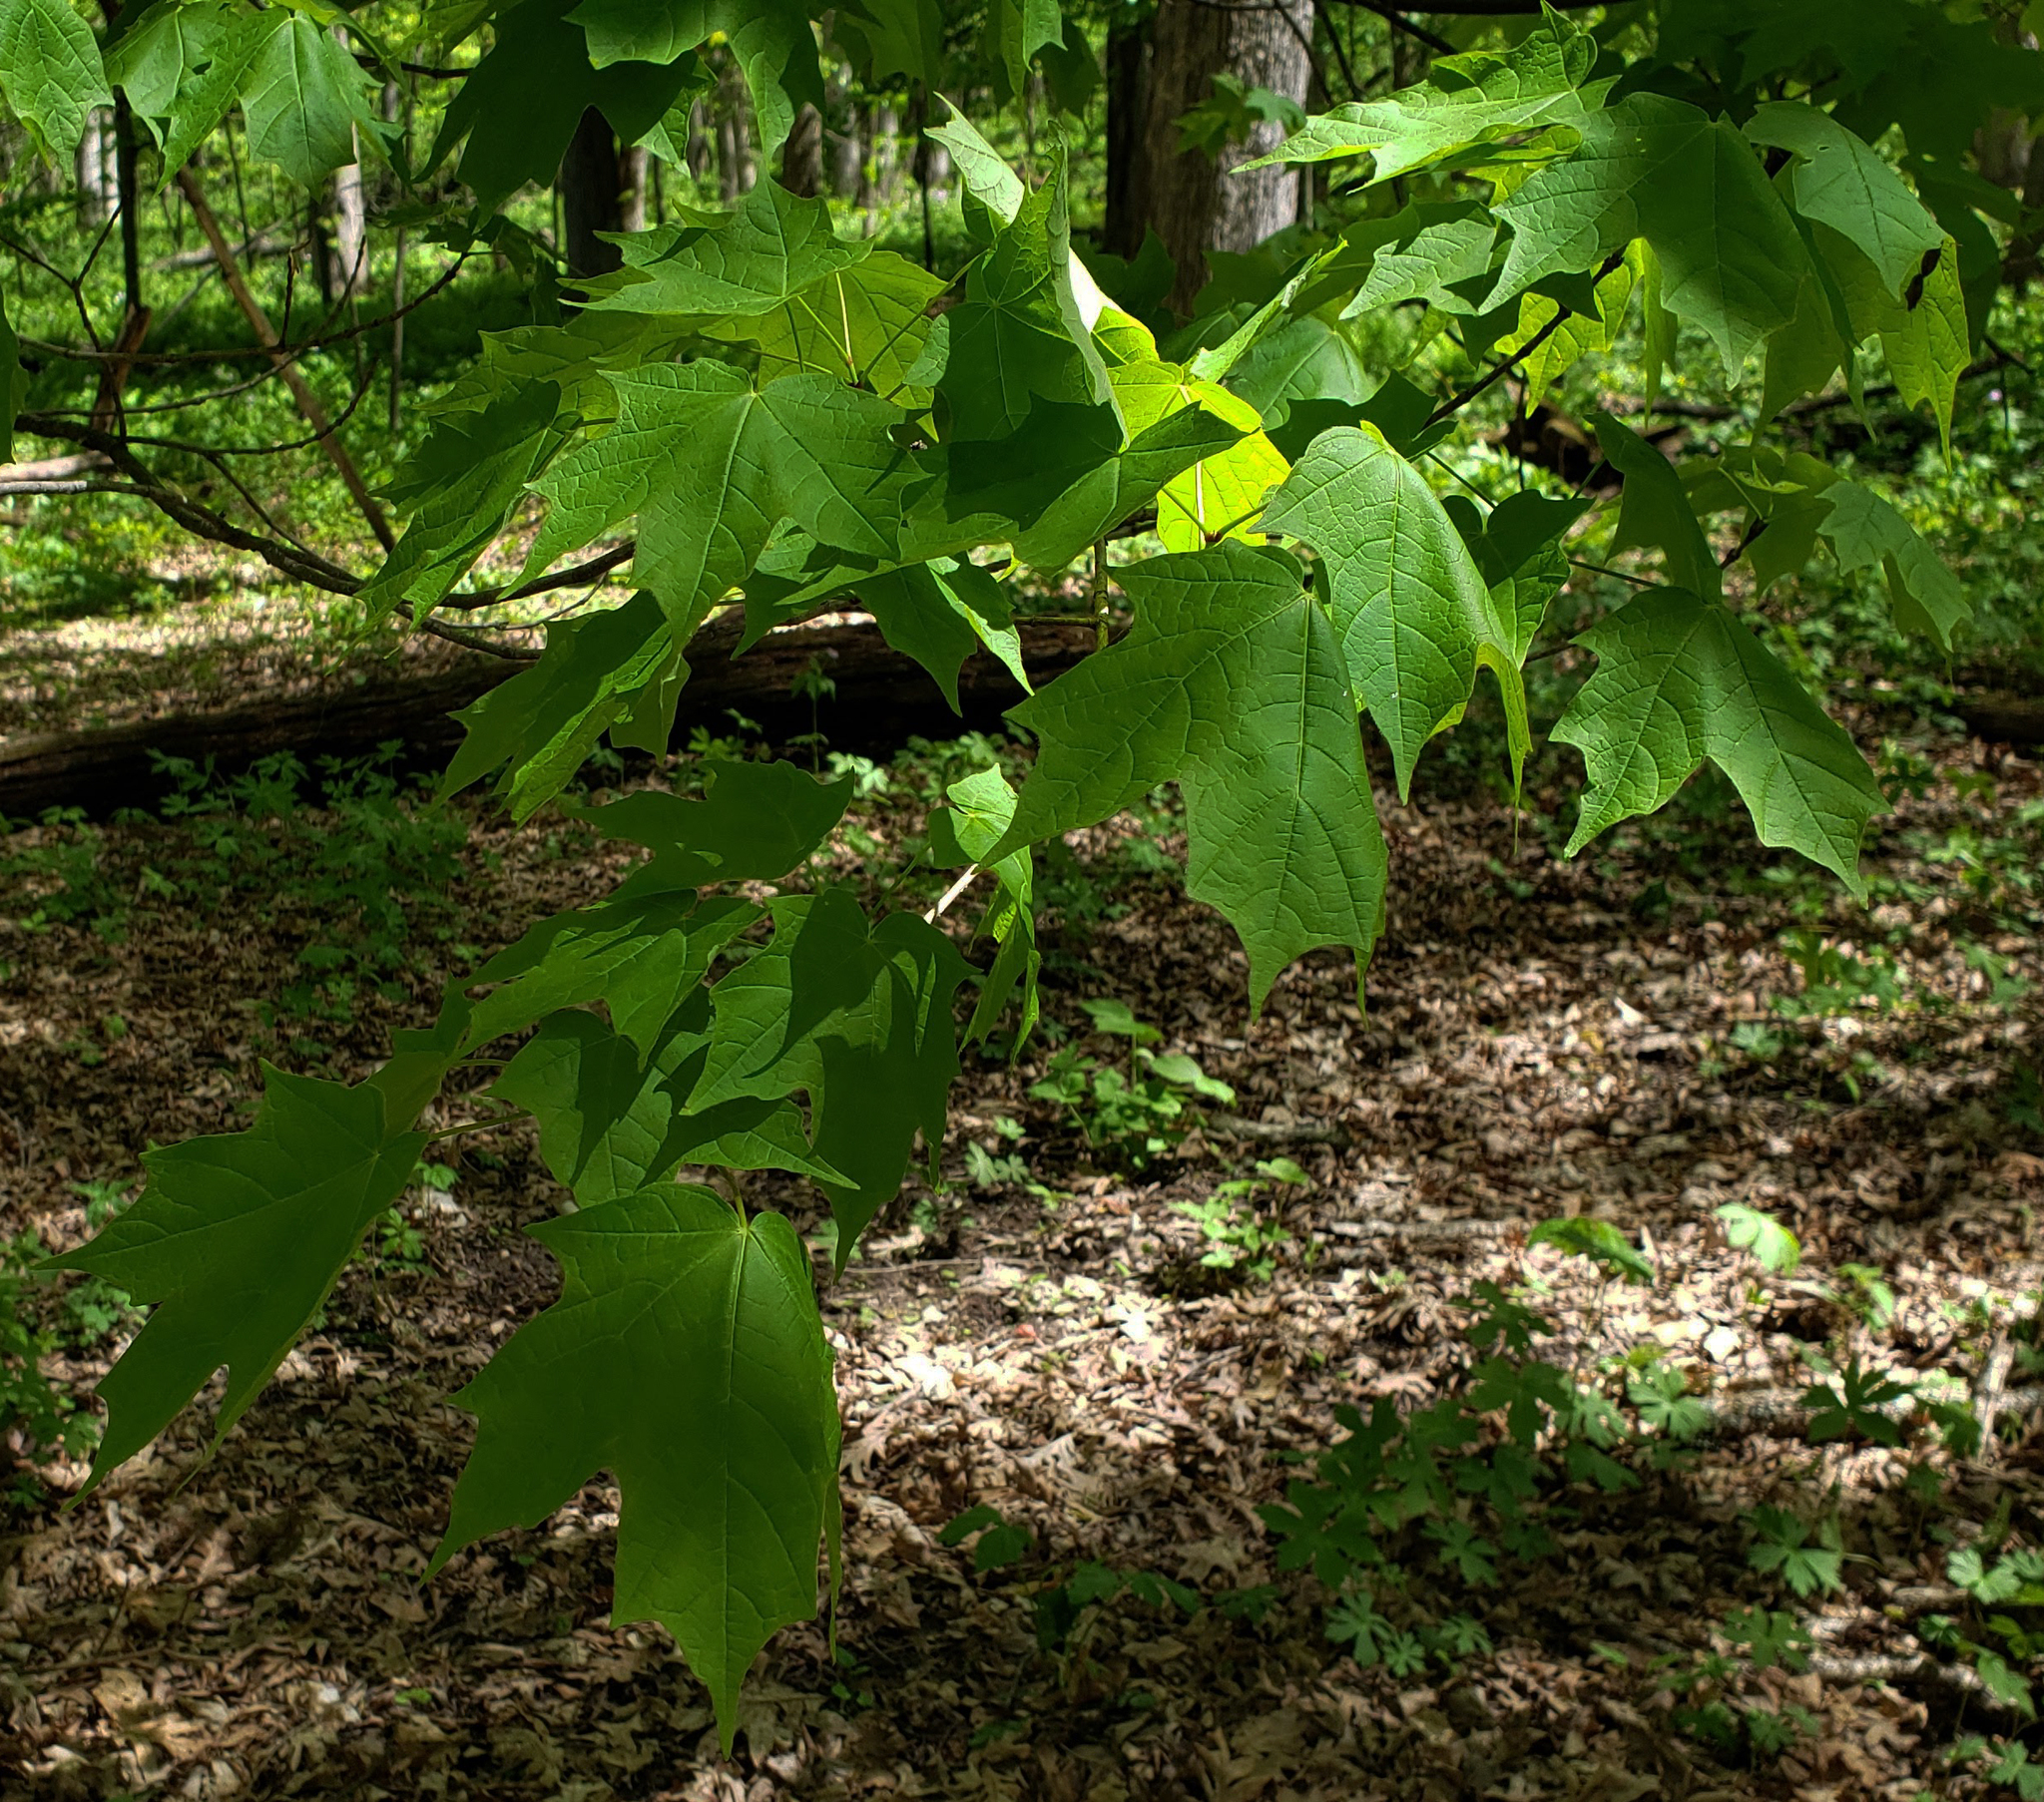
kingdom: Plantae
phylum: Tracheophyta
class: Magnoliopsida
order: Sapindales
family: Sapindaceae
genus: Acer
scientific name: Acer saccharum
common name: Sugar maple
